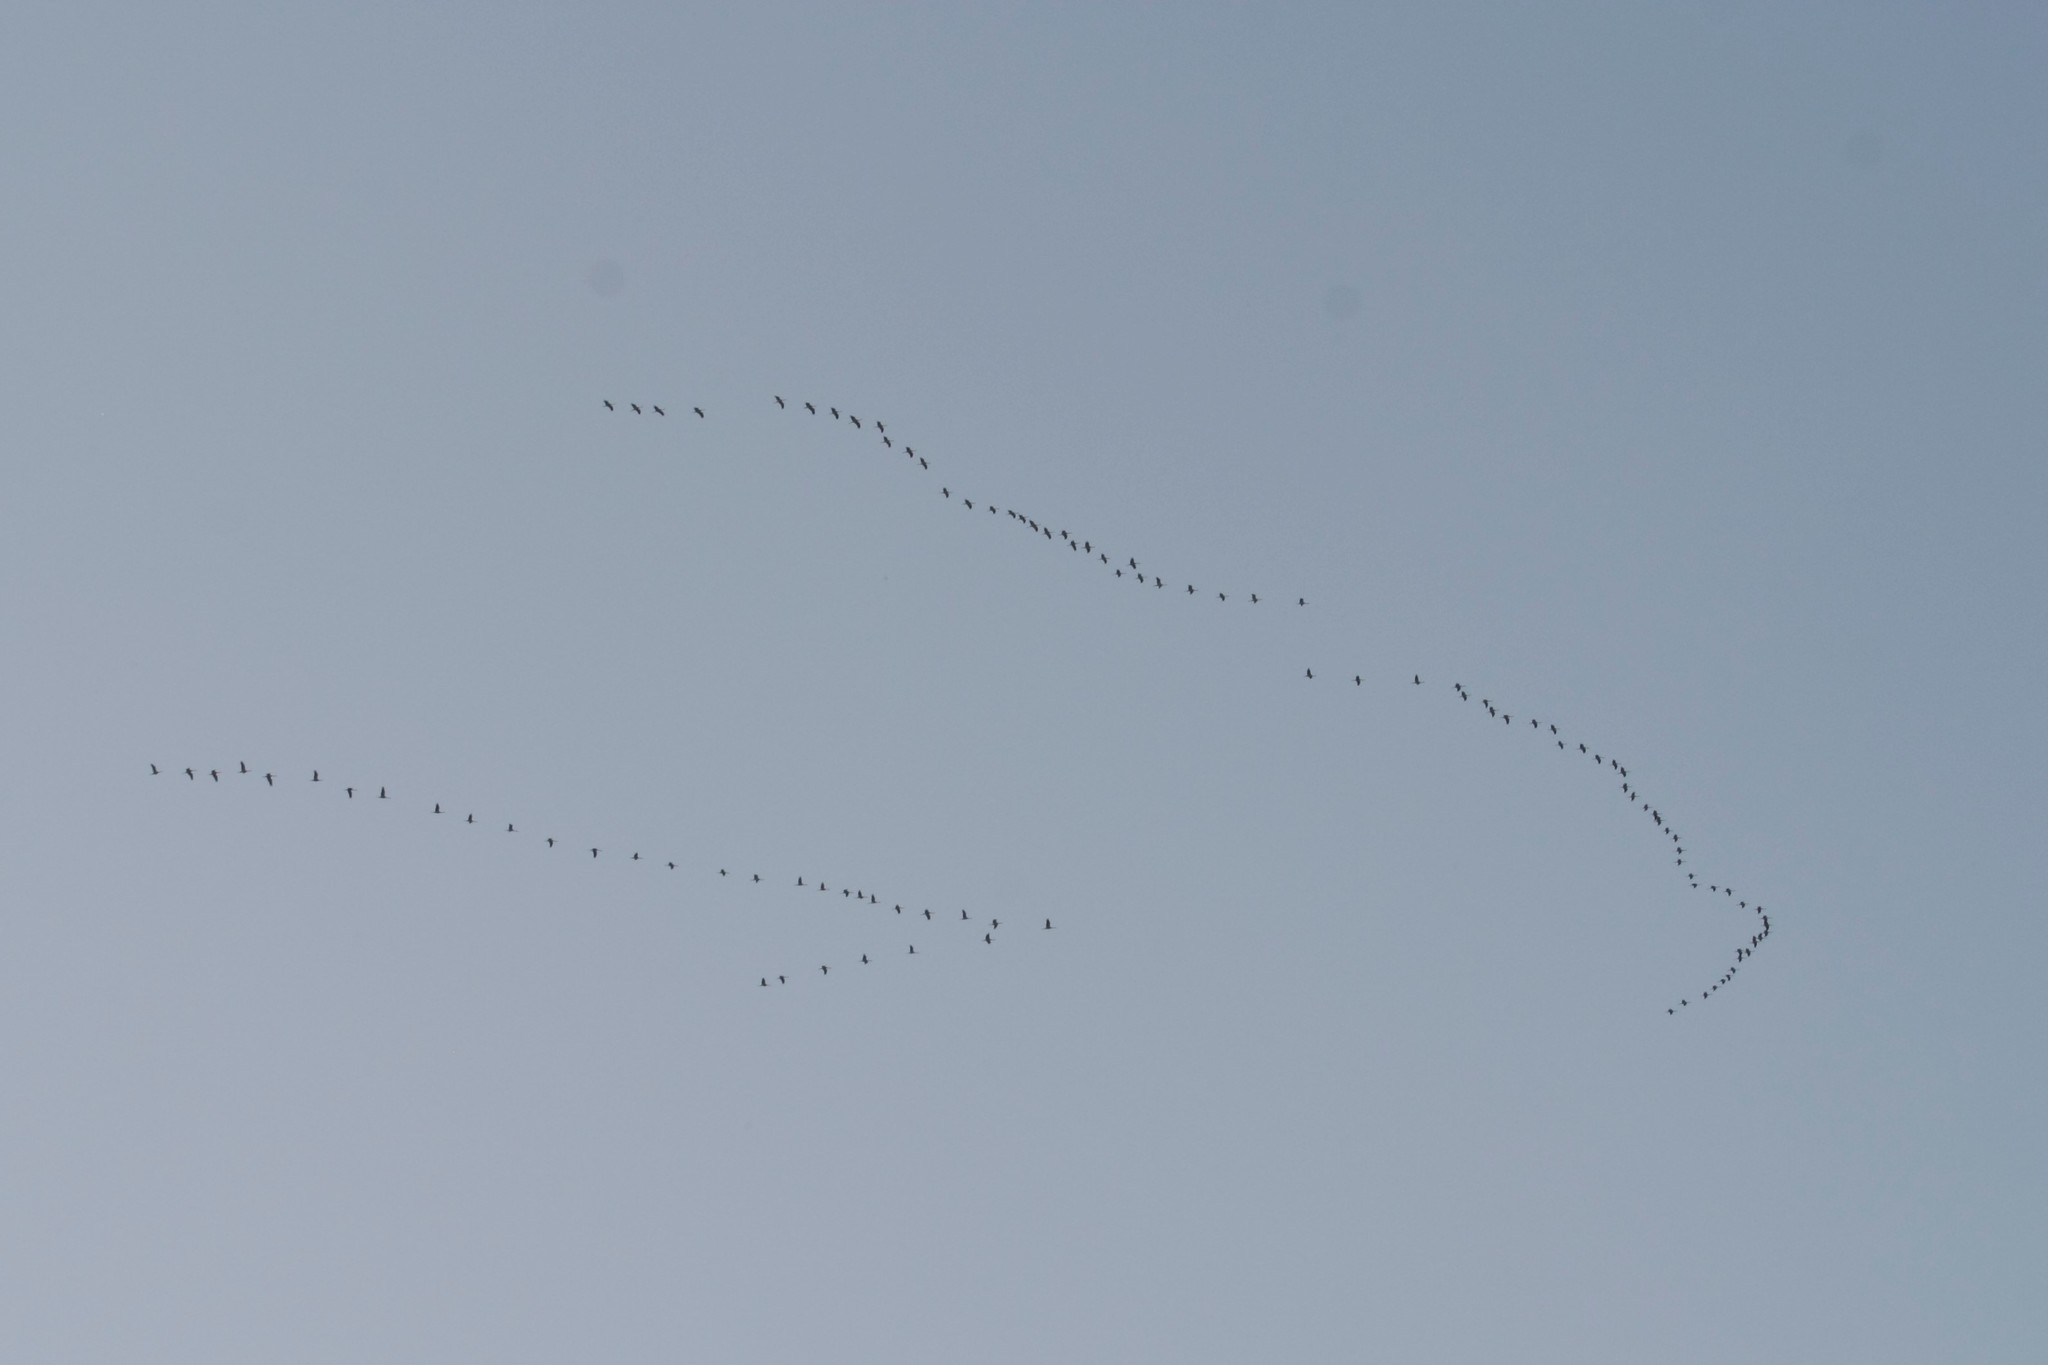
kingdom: Animalia
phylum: Chordata
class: Aves
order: Gruiformes
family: Gruidae
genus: Grus
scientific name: Grus grus
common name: Common crane
